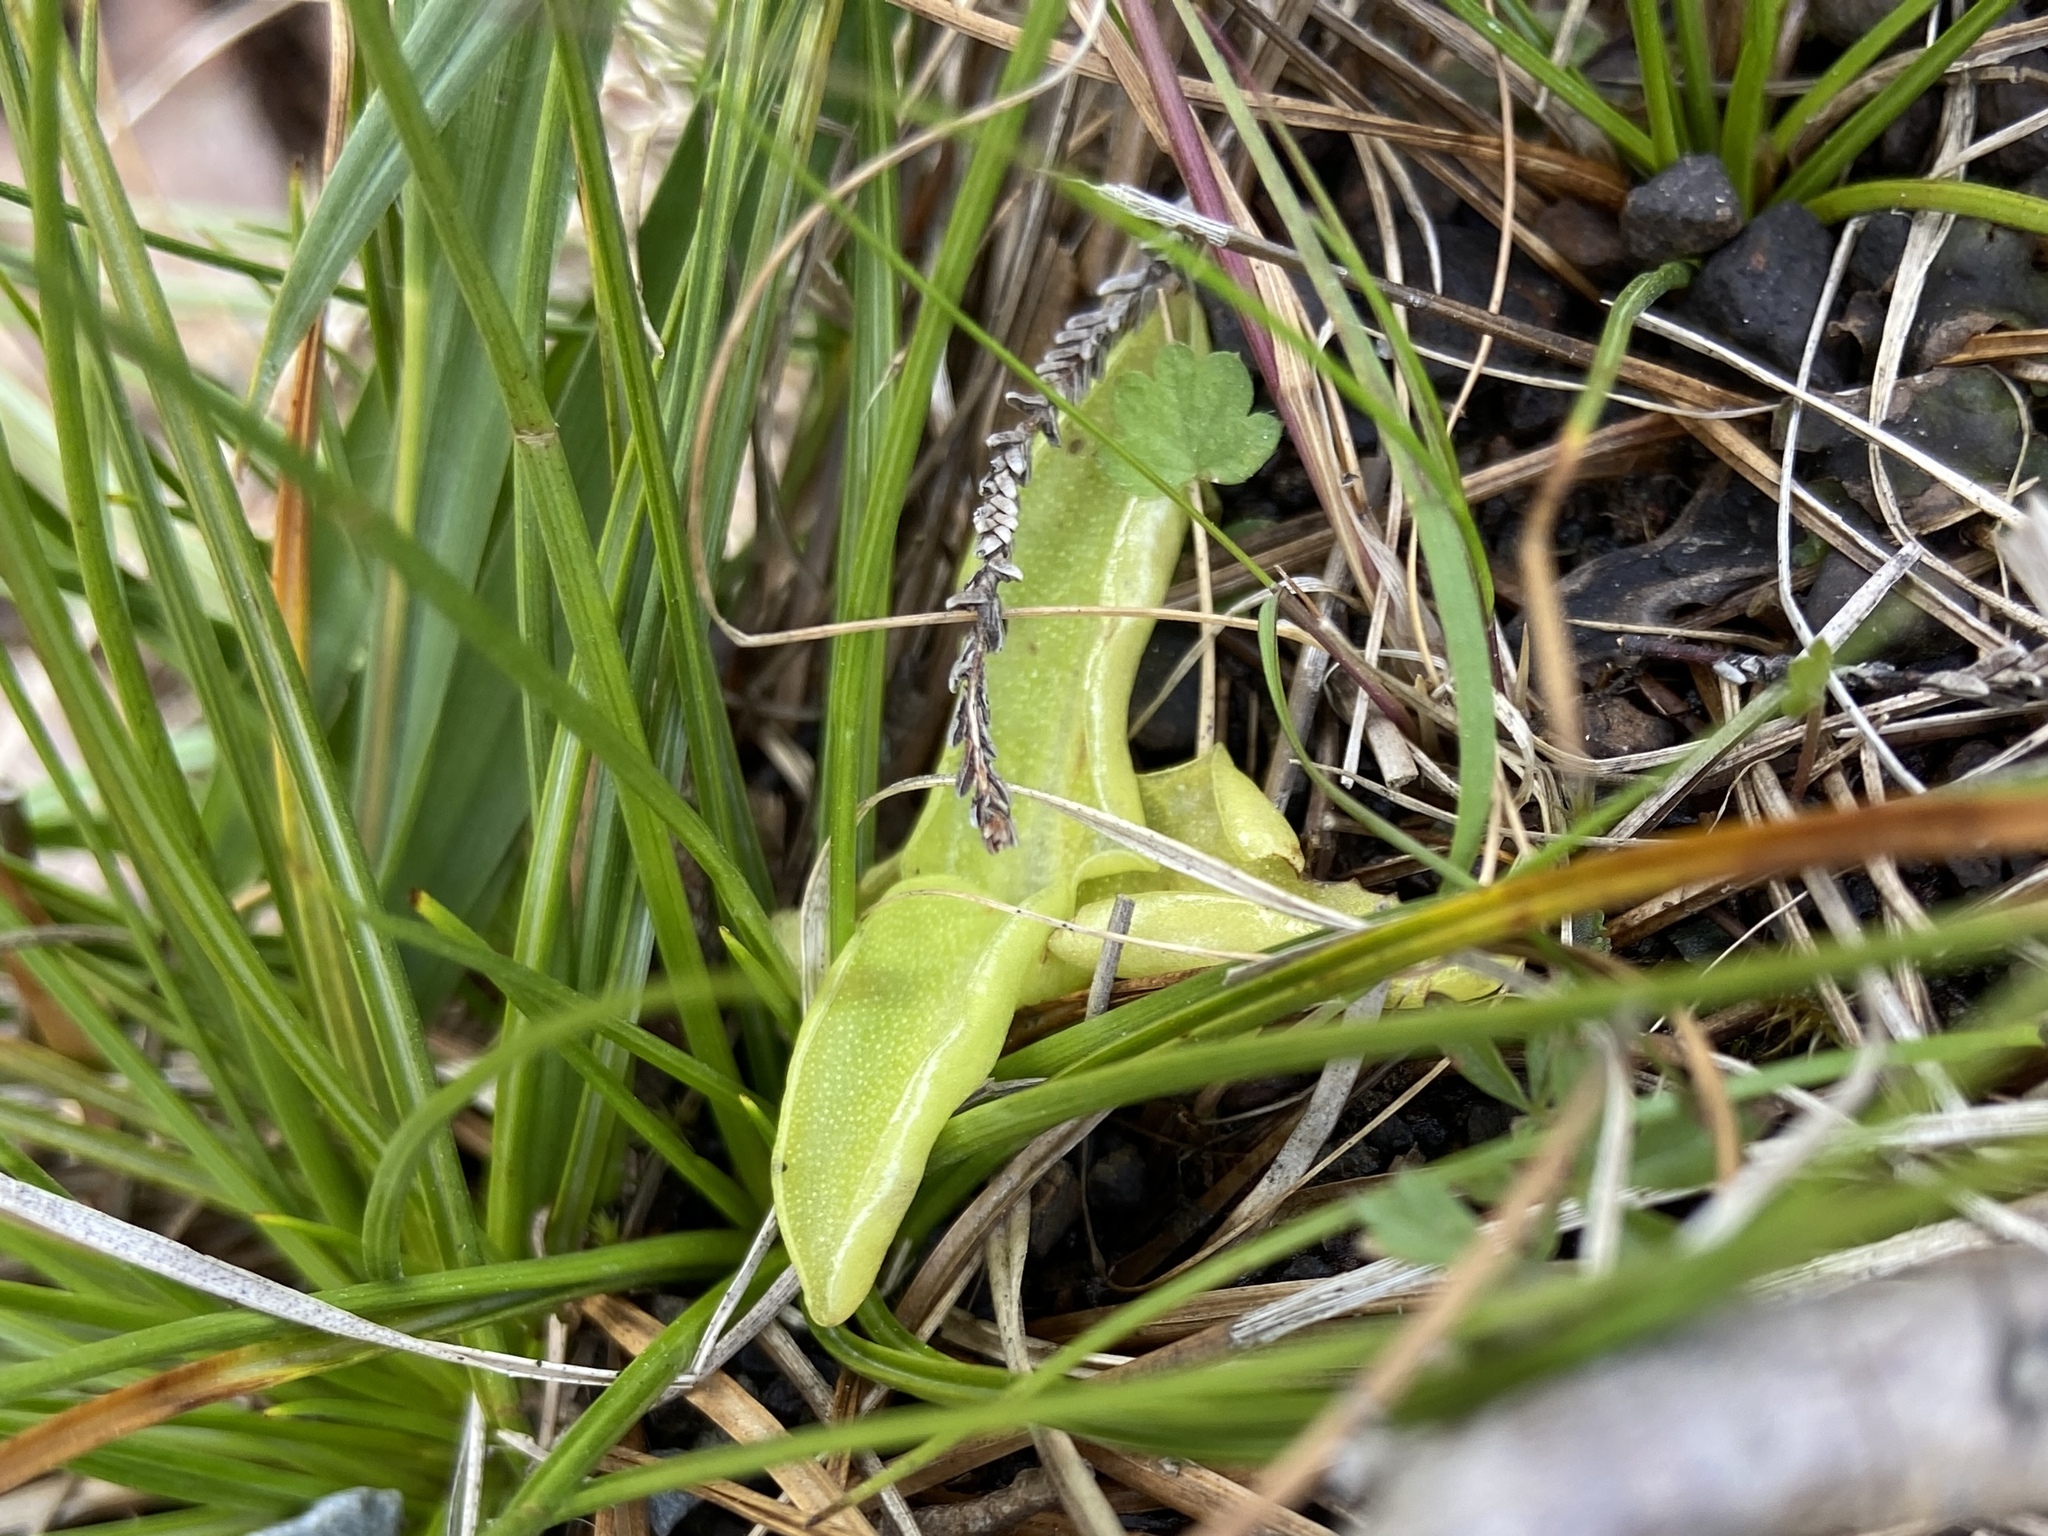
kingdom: Plantae
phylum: Tracheophyta
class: Magnoliopsida
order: Lamiales
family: Lentibulariaceae
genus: Pinguicula
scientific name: Pinguicula vulgaris
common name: Common butterwort
